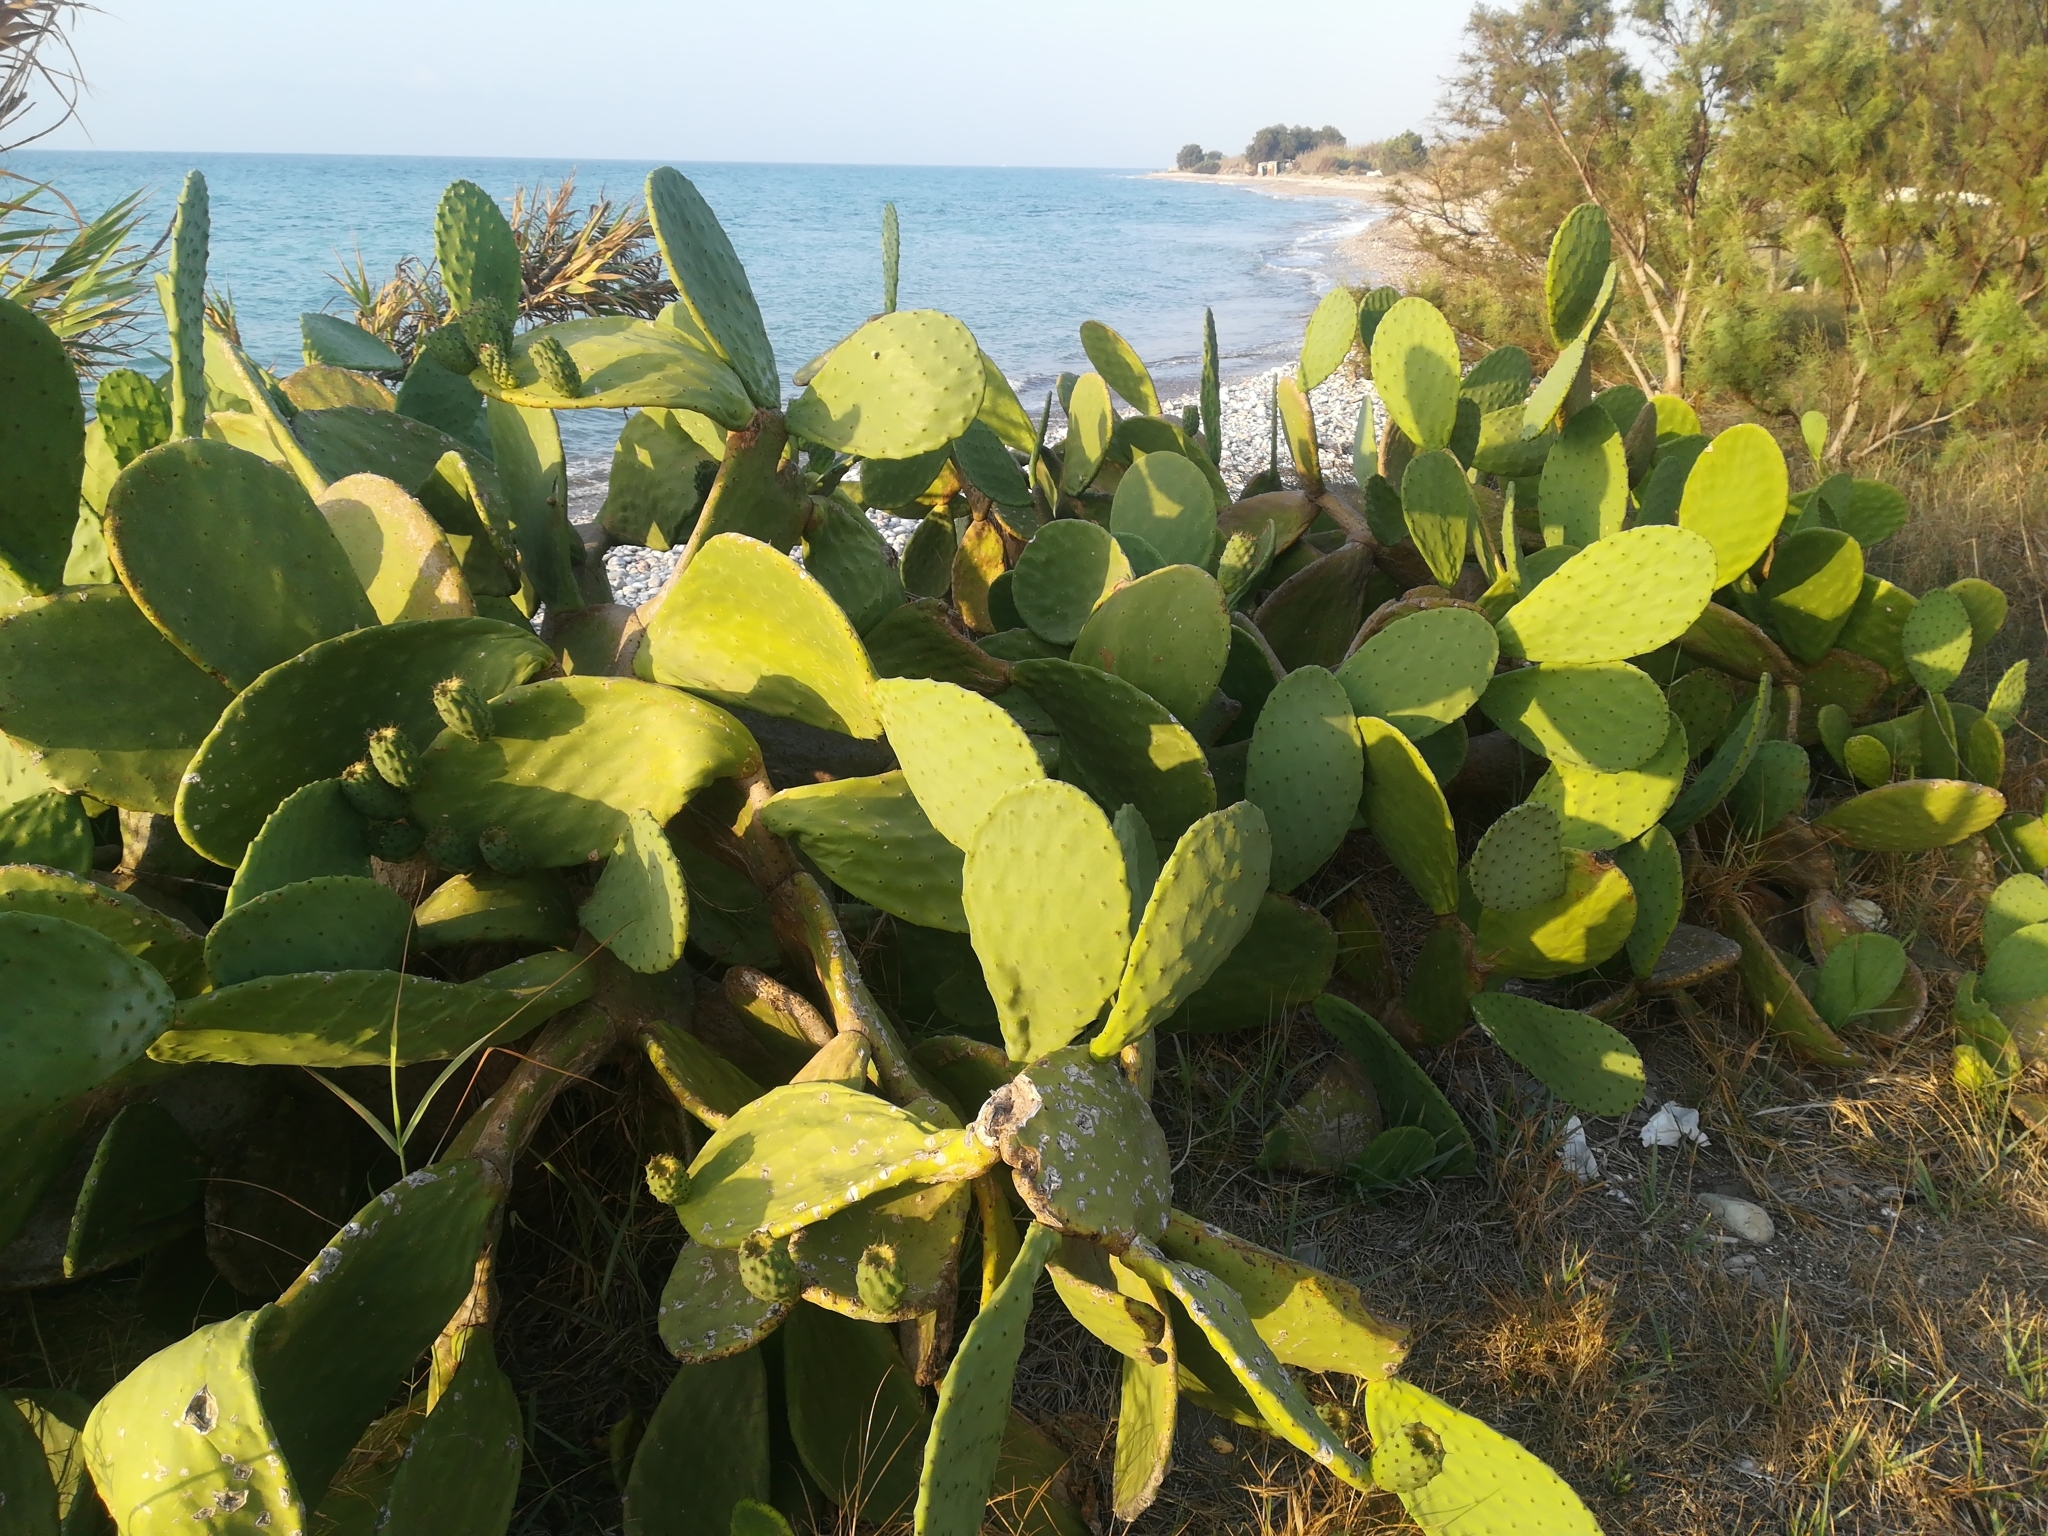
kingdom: Plantae
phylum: Tracheophyta
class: Magnoliopsida
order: Caryophyllales
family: Cactaceae
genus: Opuntia
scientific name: Opuntia ficus-indica
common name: Barbary fig
